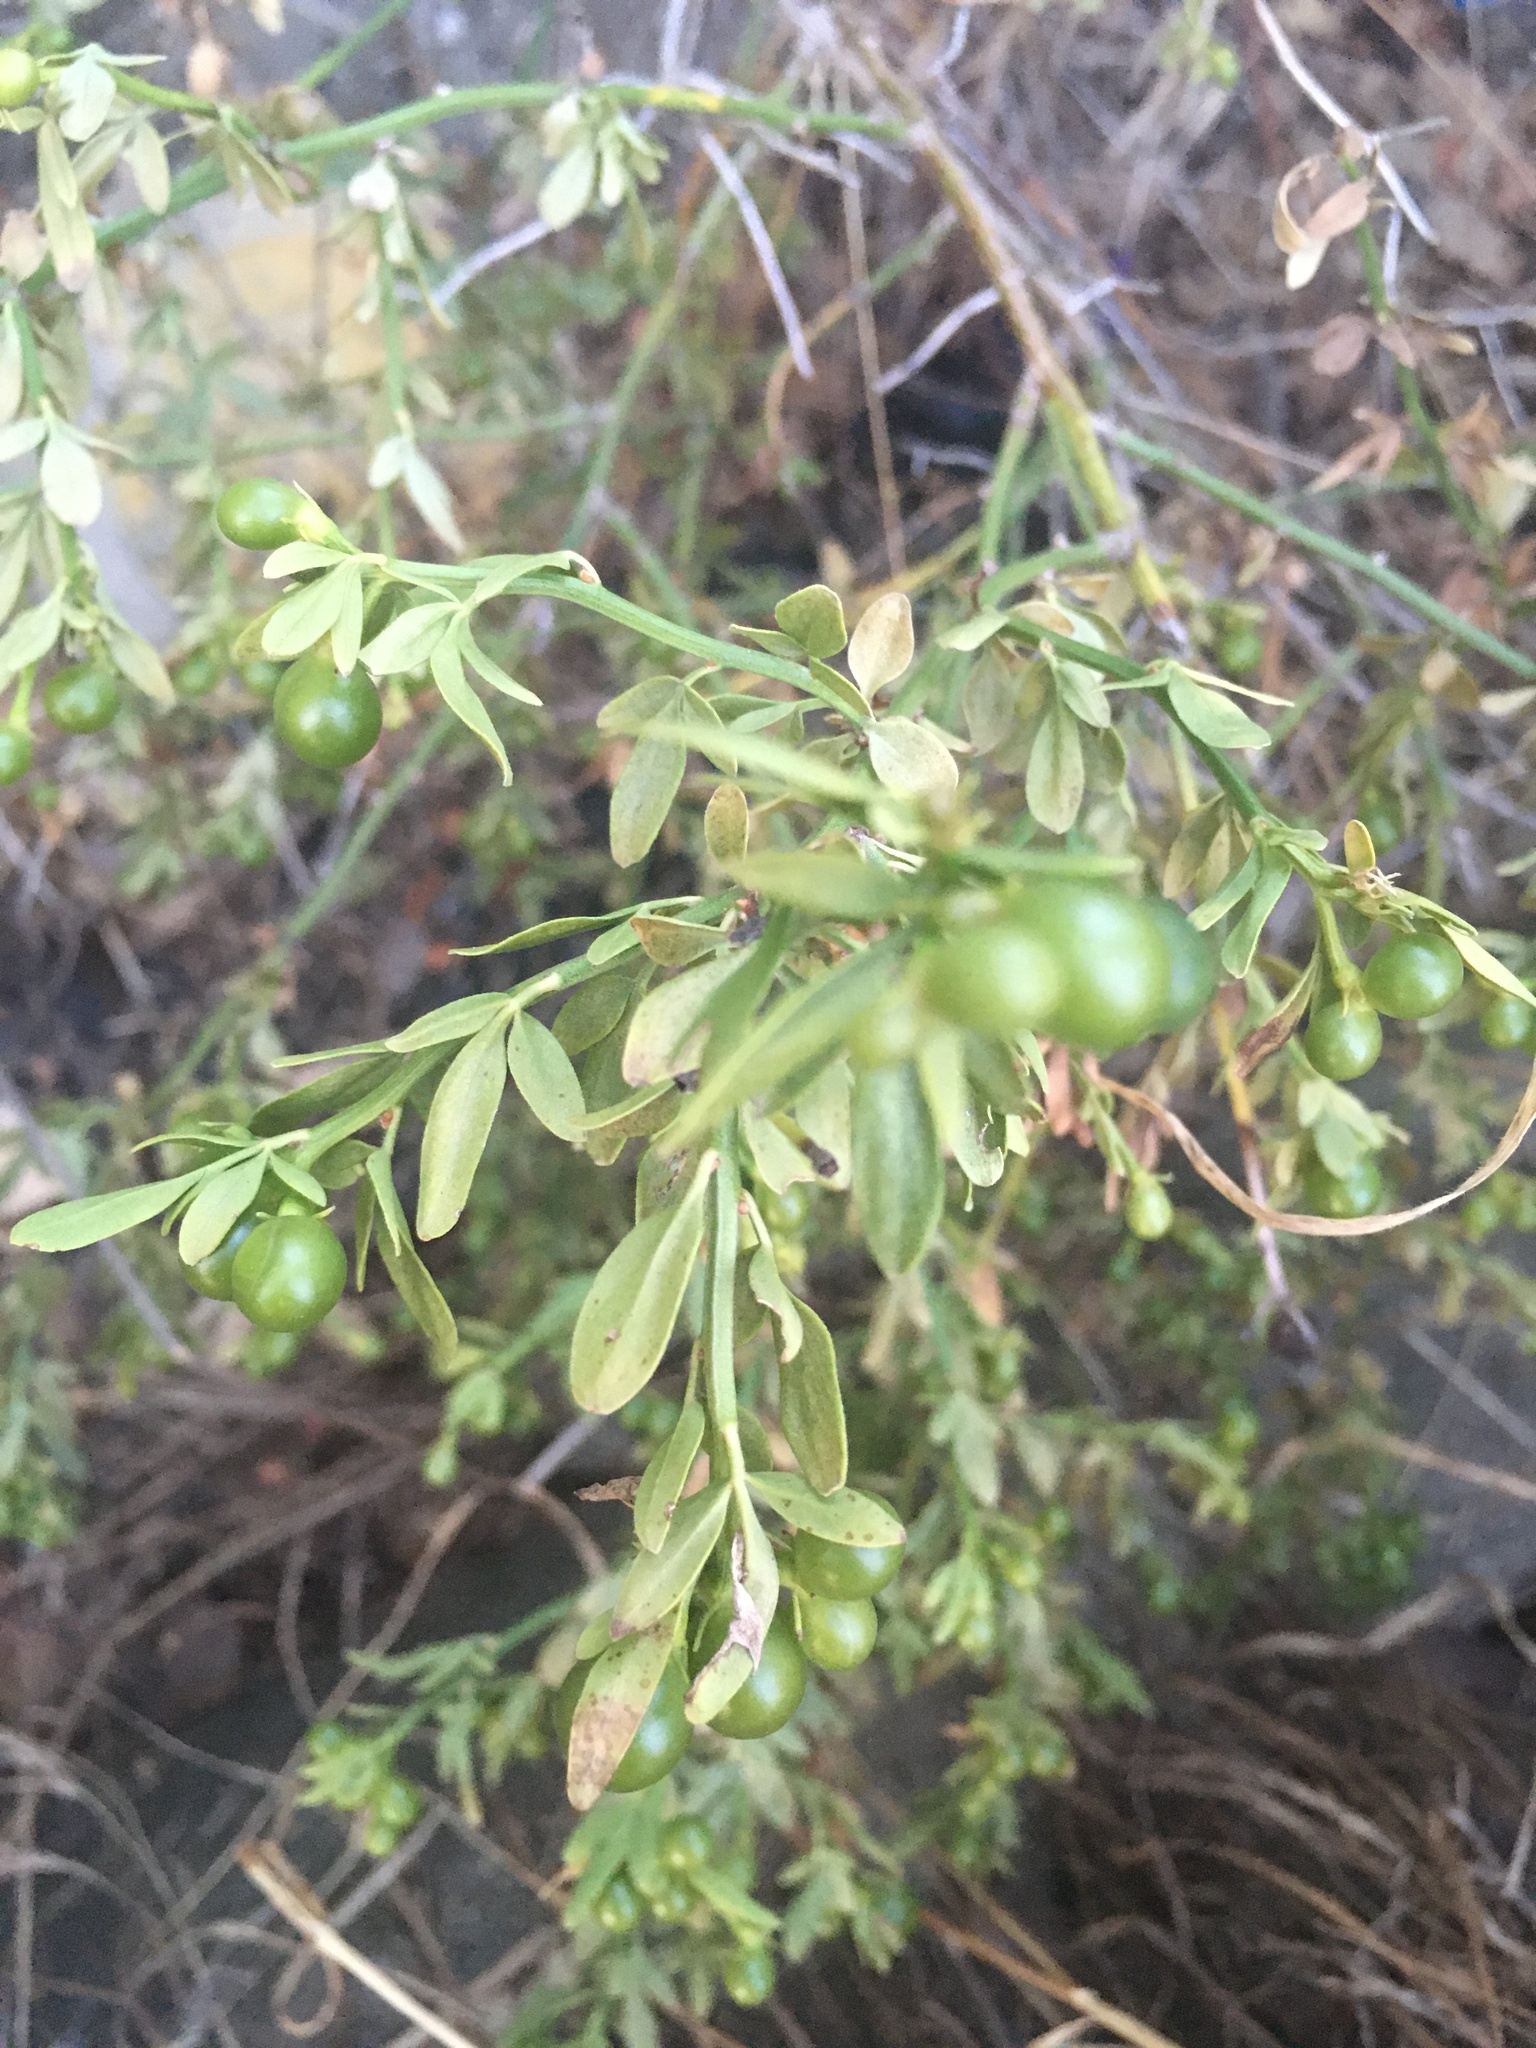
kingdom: Plantae
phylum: Tracheophyta
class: Magnoliopsida
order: Lamiales
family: Oleaceae
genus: Chrysojasminum
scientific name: Chrysojasminum fruticans
